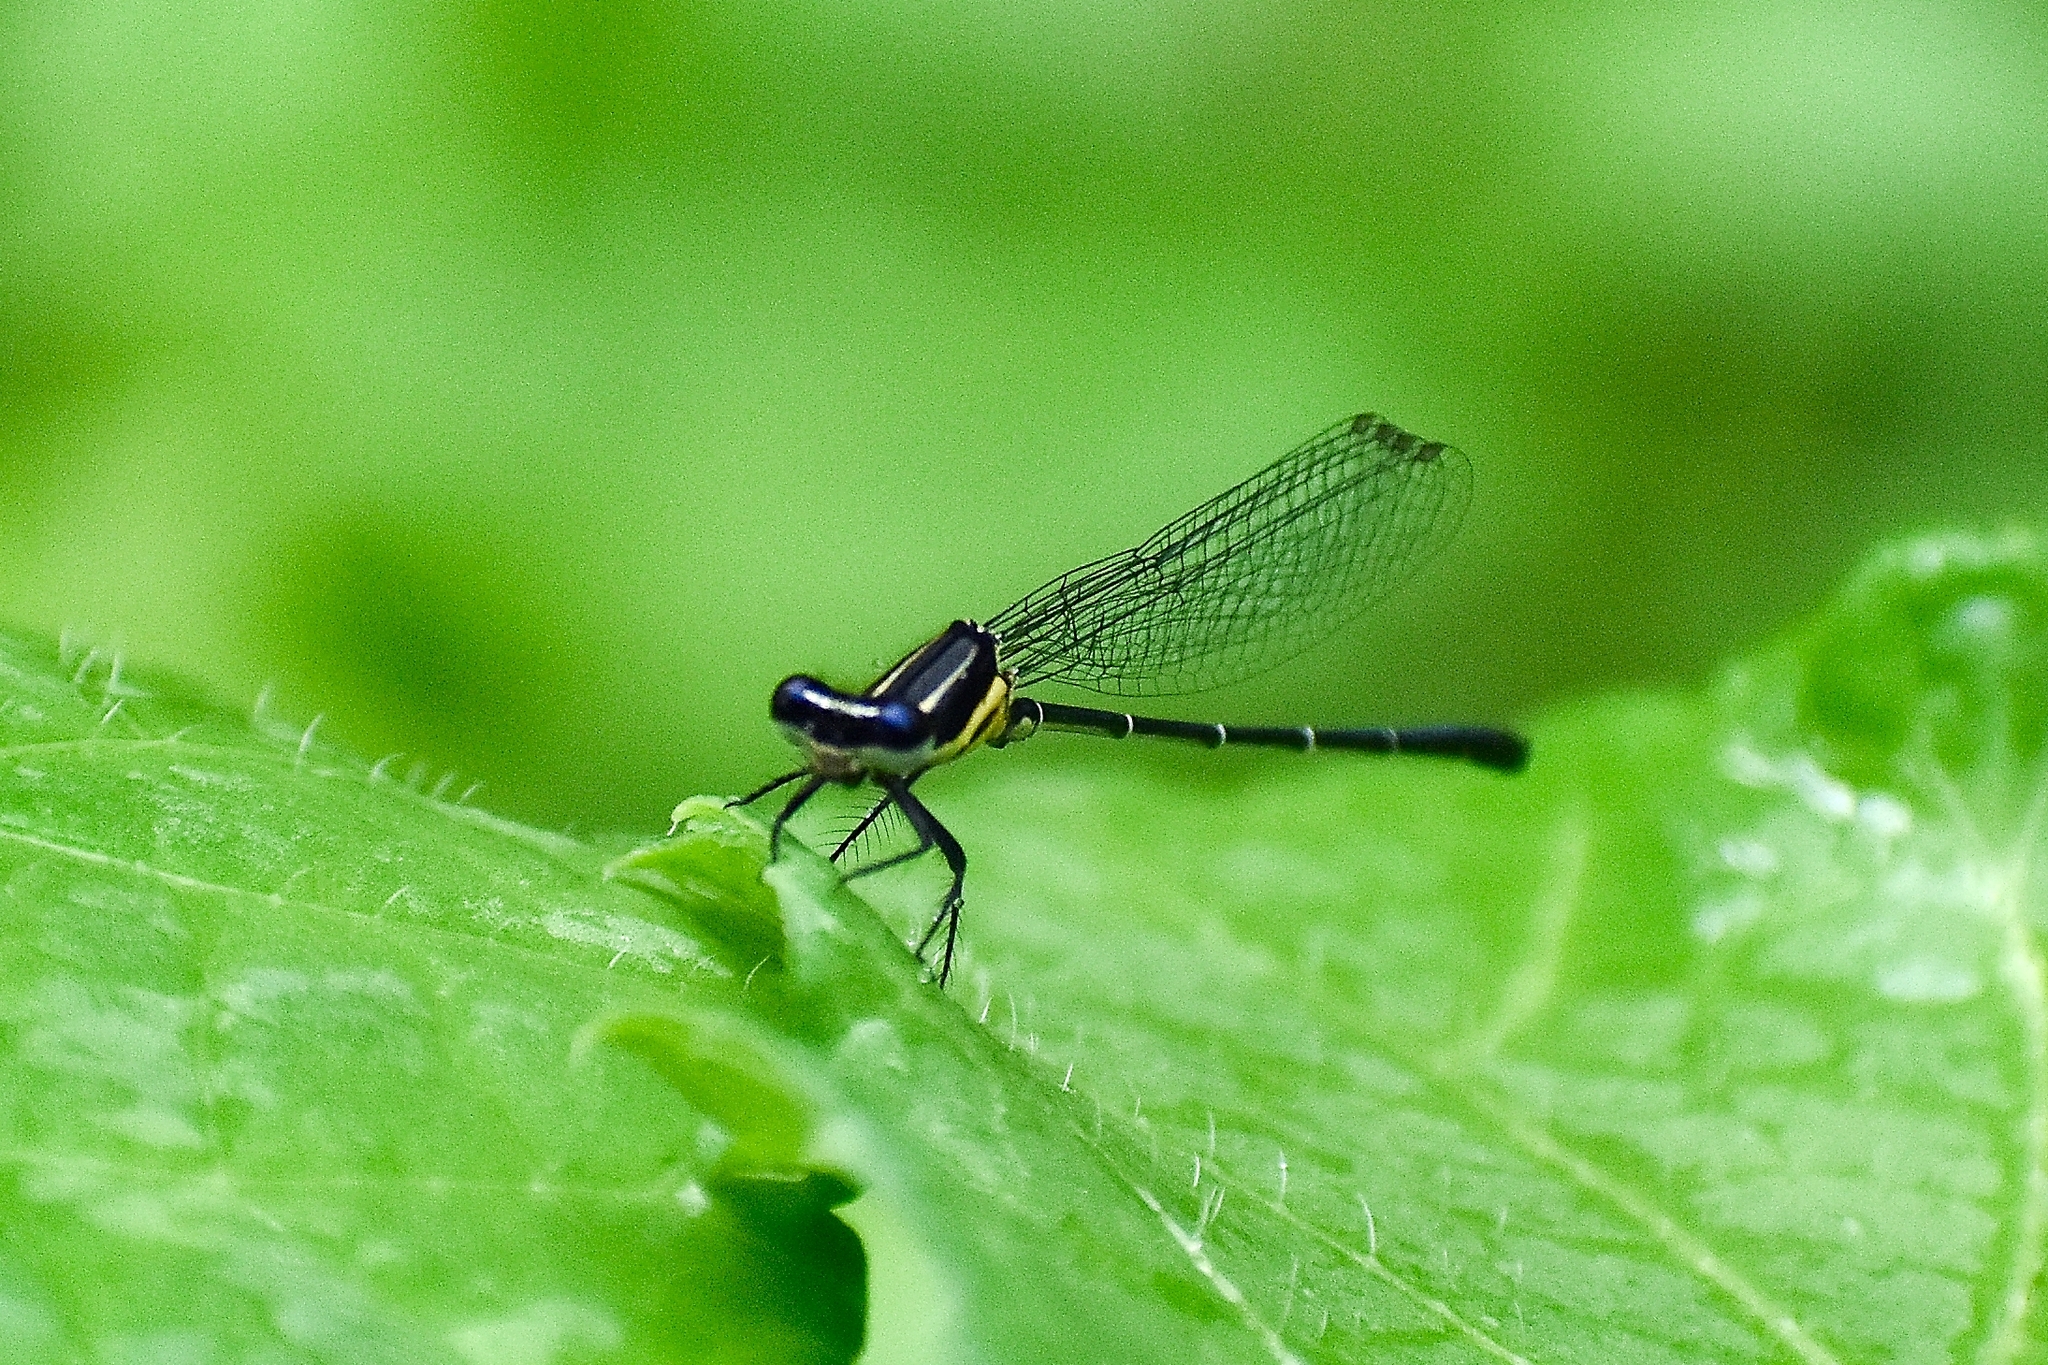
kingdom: Animalia
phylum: Arthropoda
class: Insecta
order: Odonata
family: Platycnemididae
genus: Onychargia
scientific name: Onychargia atrocyana
